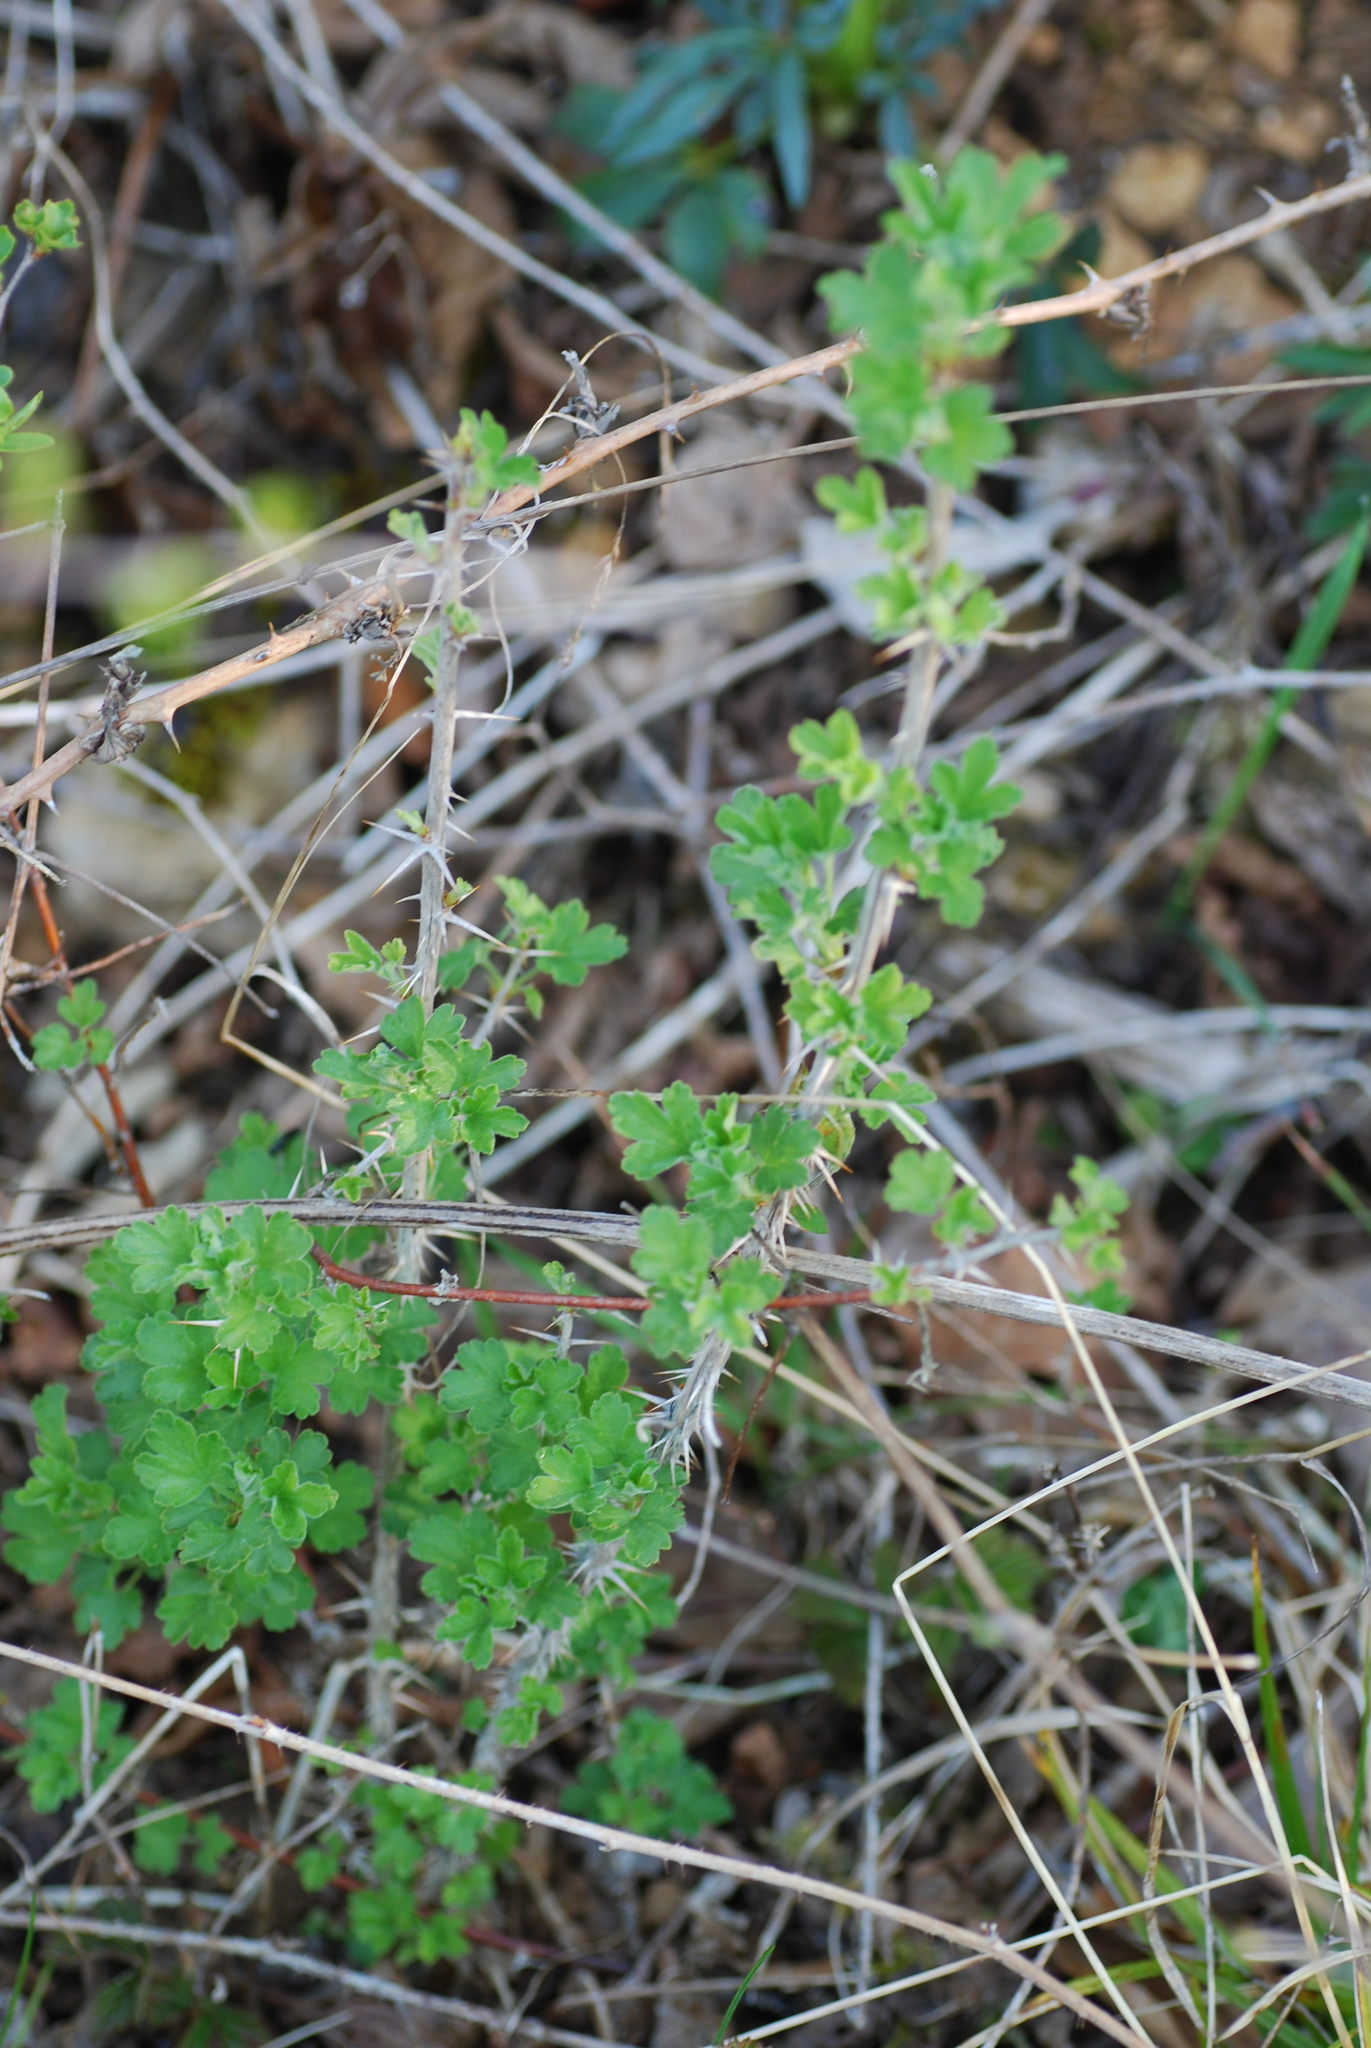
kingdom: Plantae
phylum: Tracheophyta
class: Magnoliopsida
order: Saxifragales
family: Grossulariaceae
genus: Ribes
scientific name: Ribes uva-crispa
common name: Gooseberry
